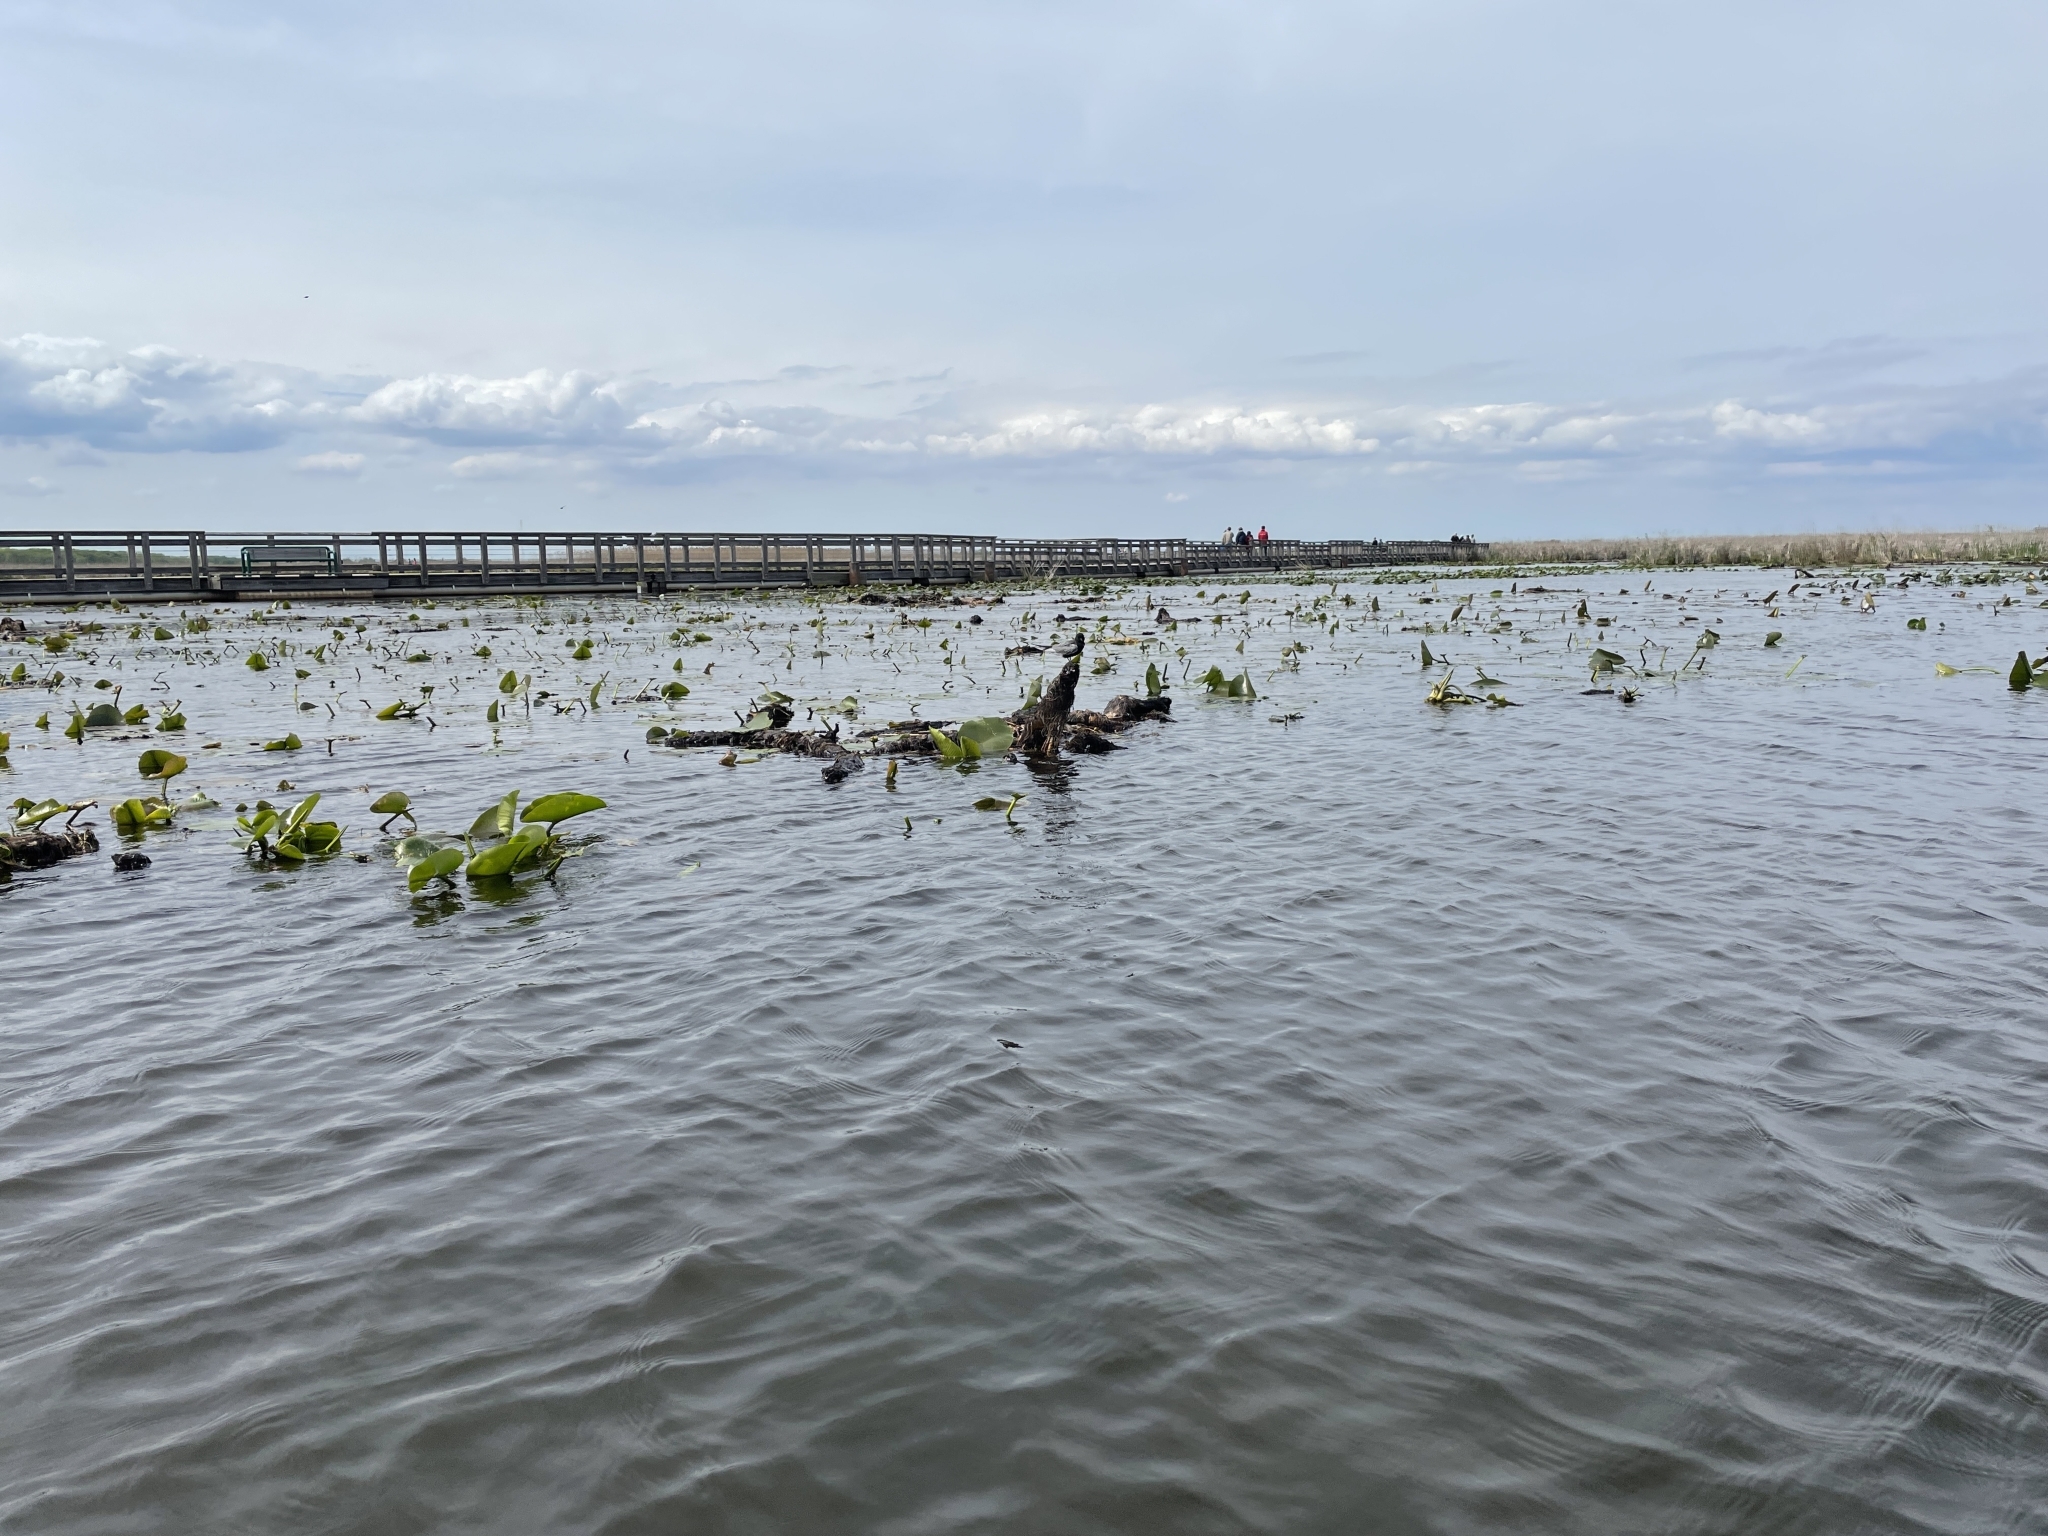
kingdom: Animalia
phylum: Chordata
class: Aves
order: Charadriiformes
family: Laridae
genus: Chlidonias
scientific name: Chlidonias niger
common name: Black tern
